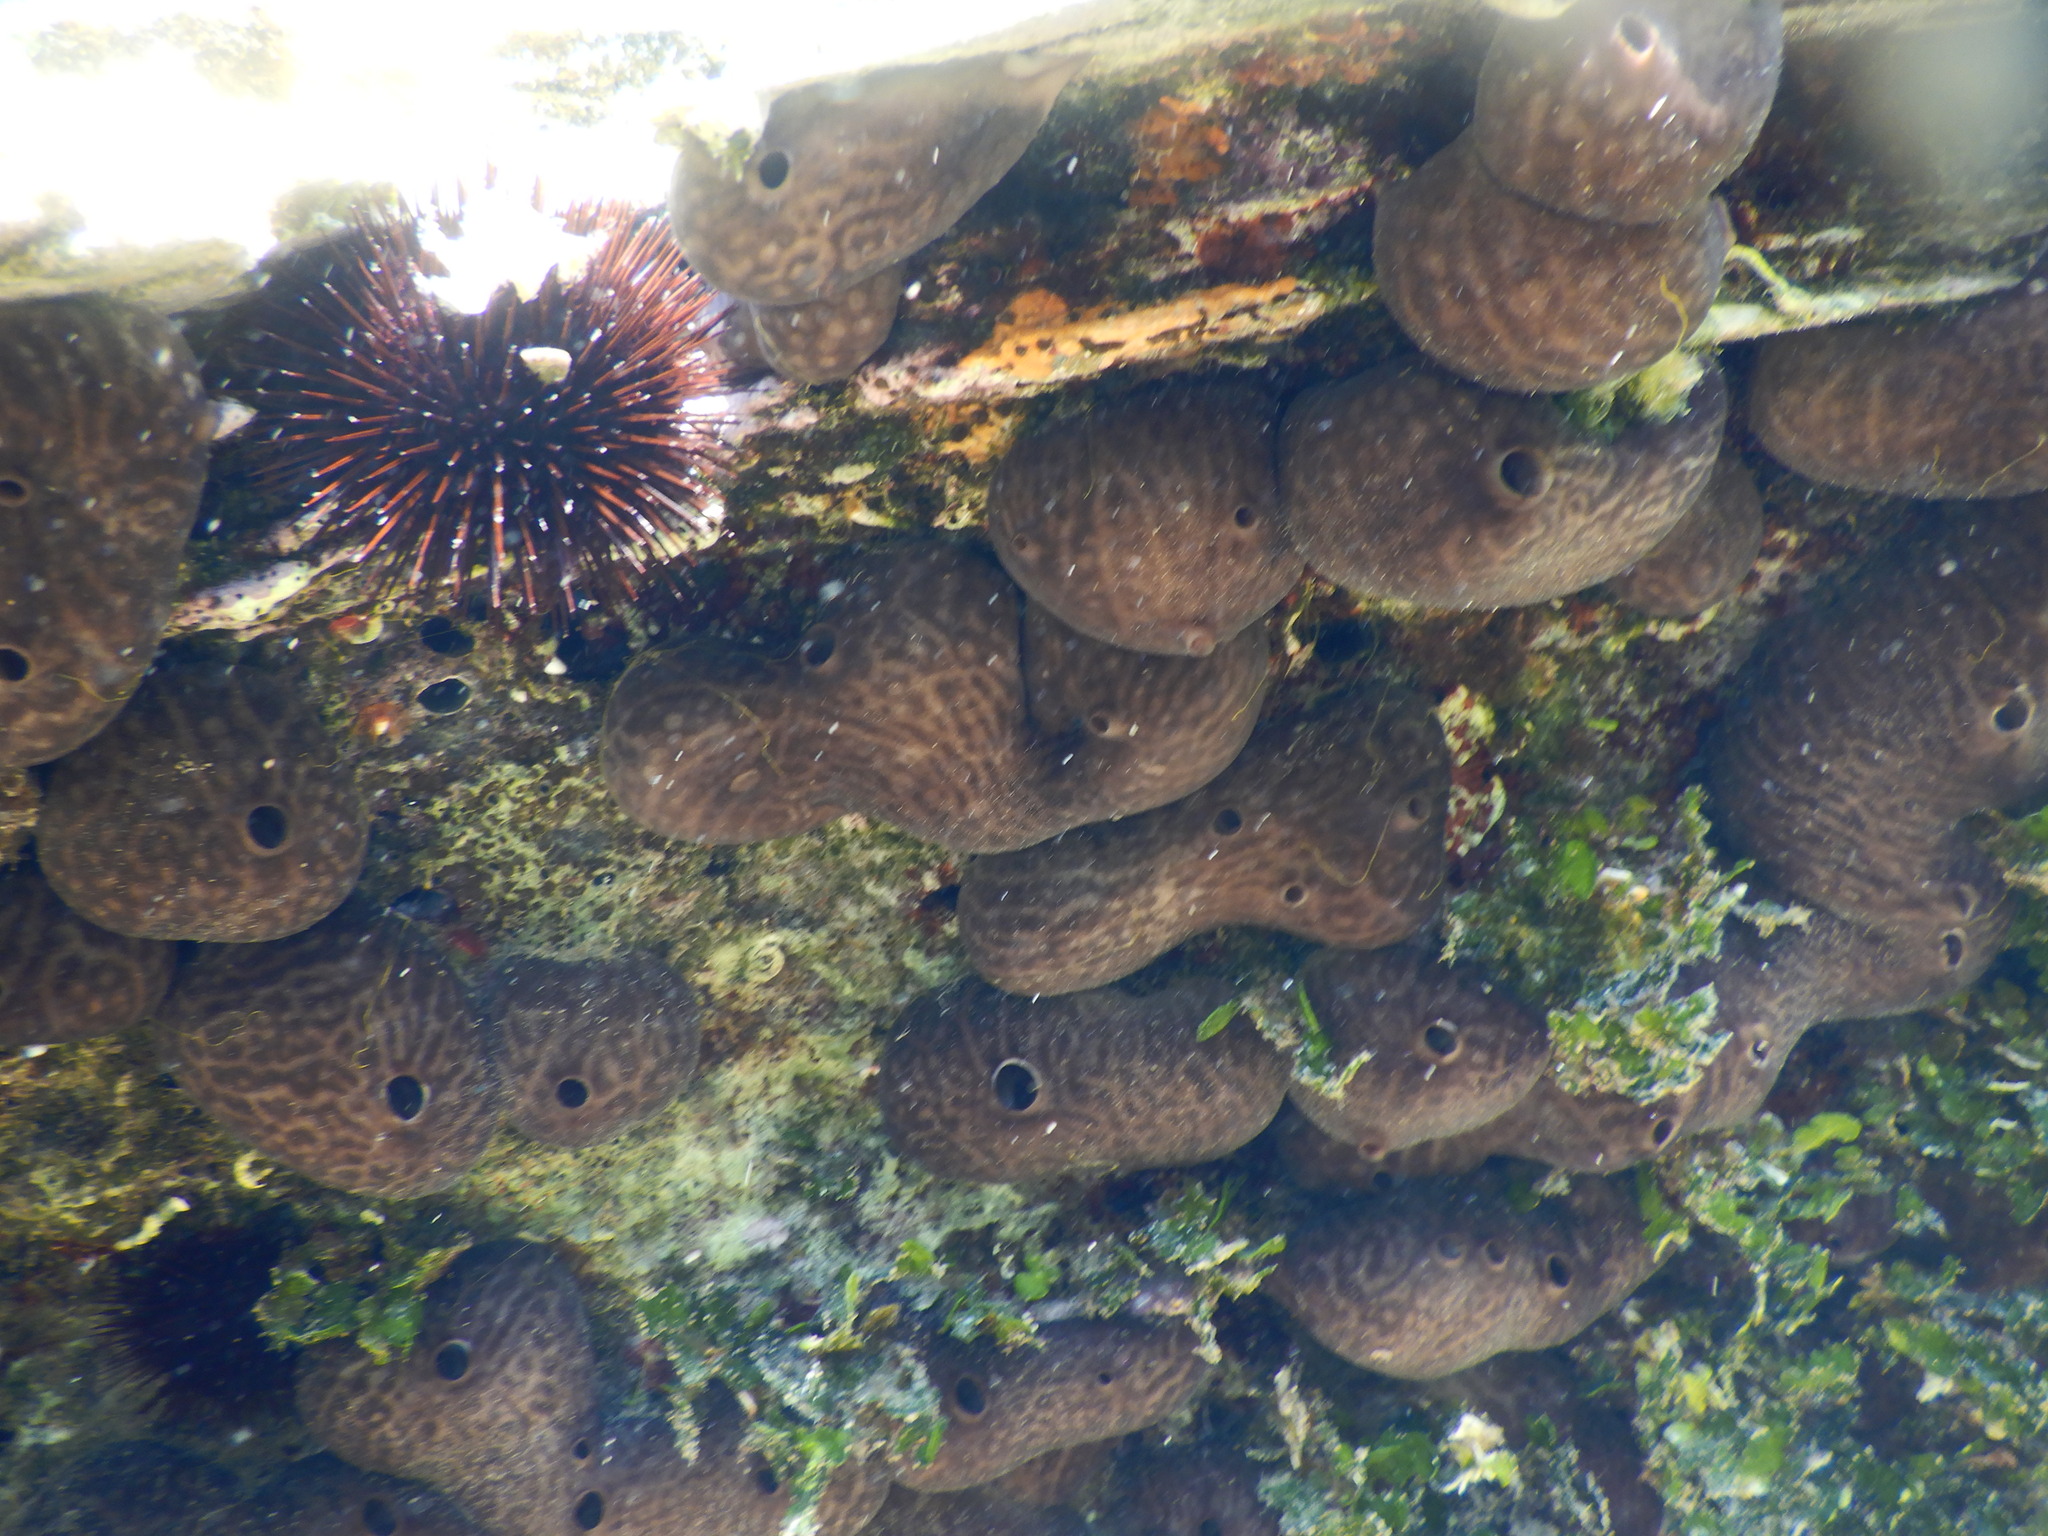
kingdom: Animalia
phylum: Porifera
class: Demospongiae
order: Chondrosiida
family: Chondrosiidae
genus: Chondrosia
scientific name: Chondrosia reniformis
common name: Chicken liver sponge
